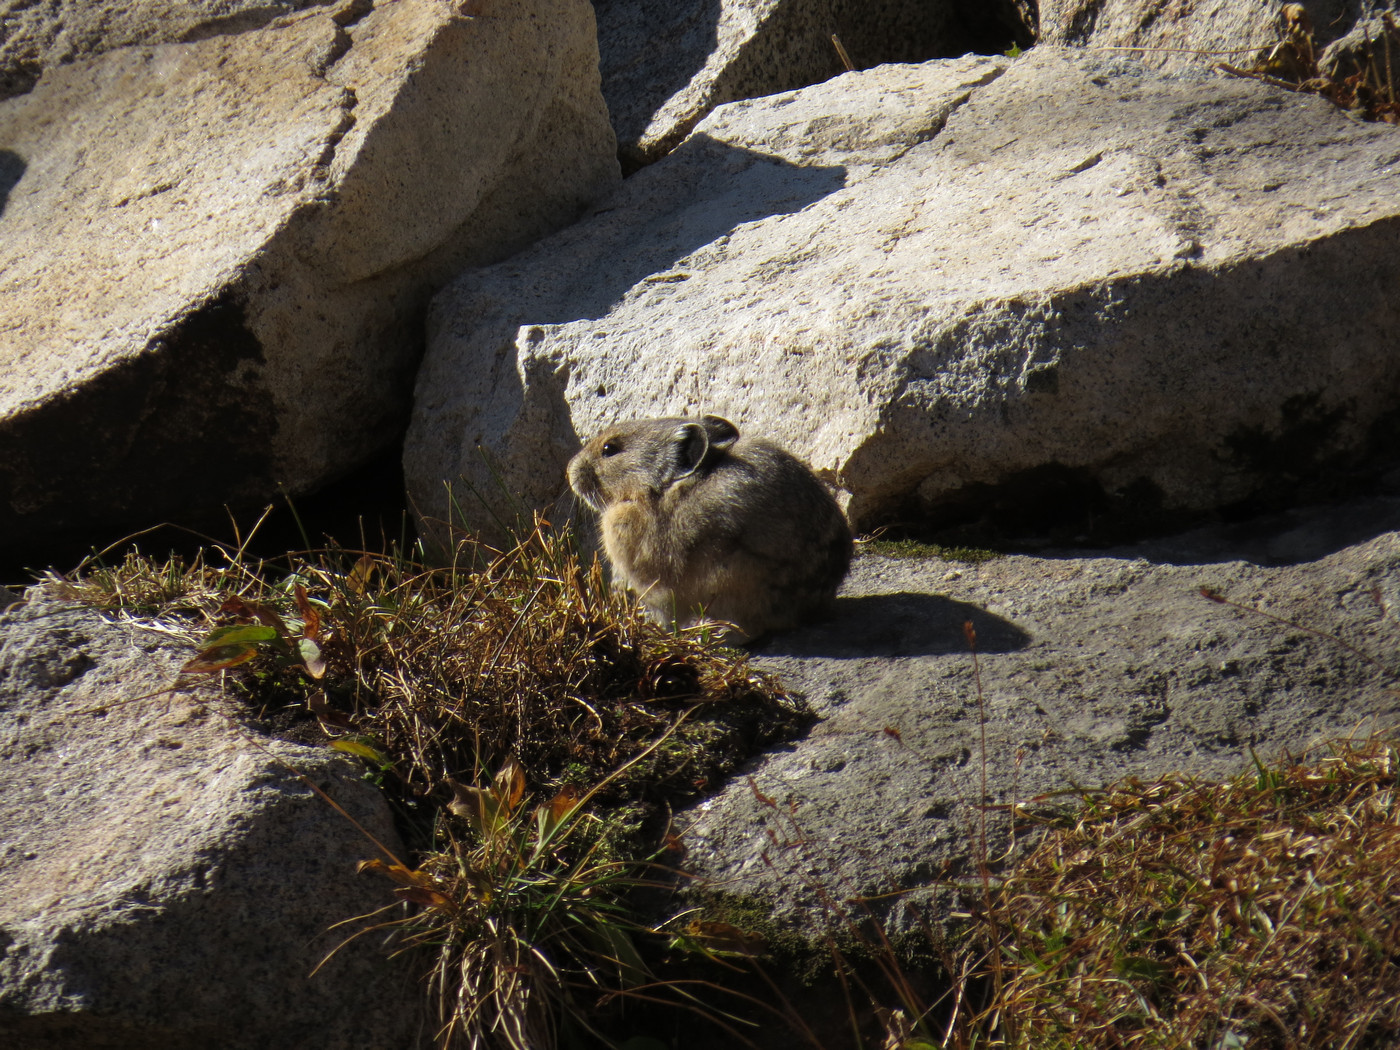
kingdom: Animalia
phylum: Chordata
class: Mammalia
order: Lagomorpha
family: Ochotonidae
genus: Ochotona
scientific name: Ochotona princeps
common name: American pika
